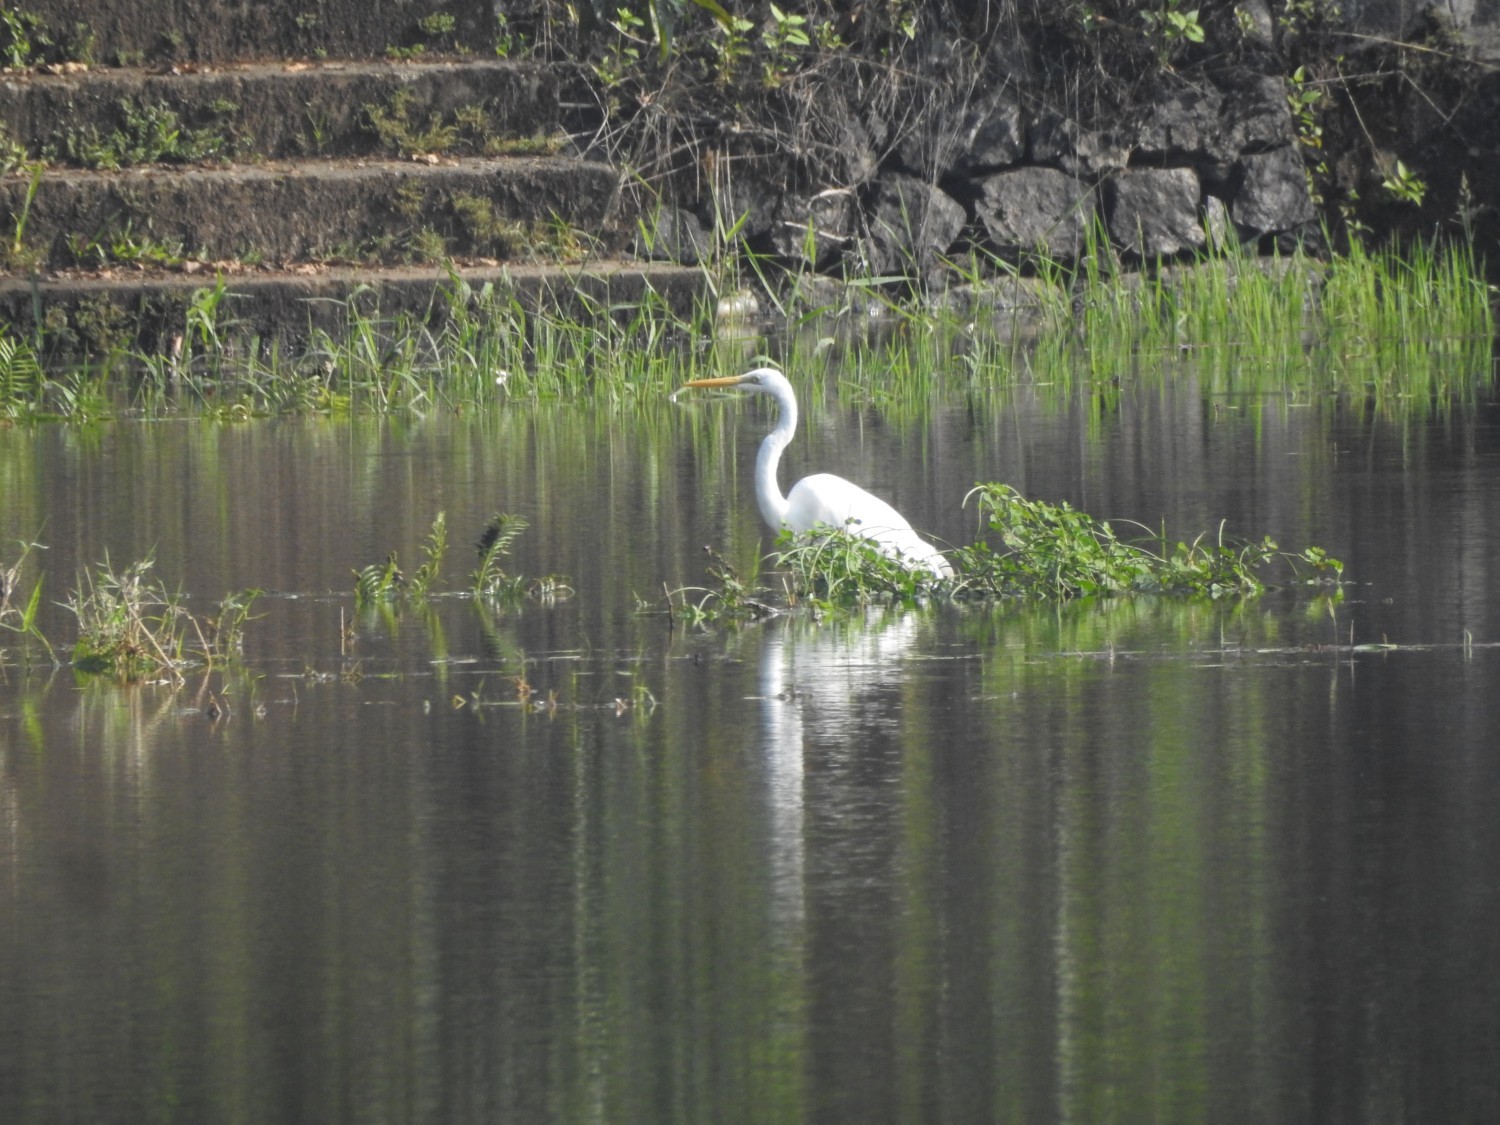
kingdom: Animalia
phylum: Chordata
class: Aves
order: Pelecaniformes
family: Ardeidae
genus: Ardea
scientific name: Ardea alba
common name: Great egret
